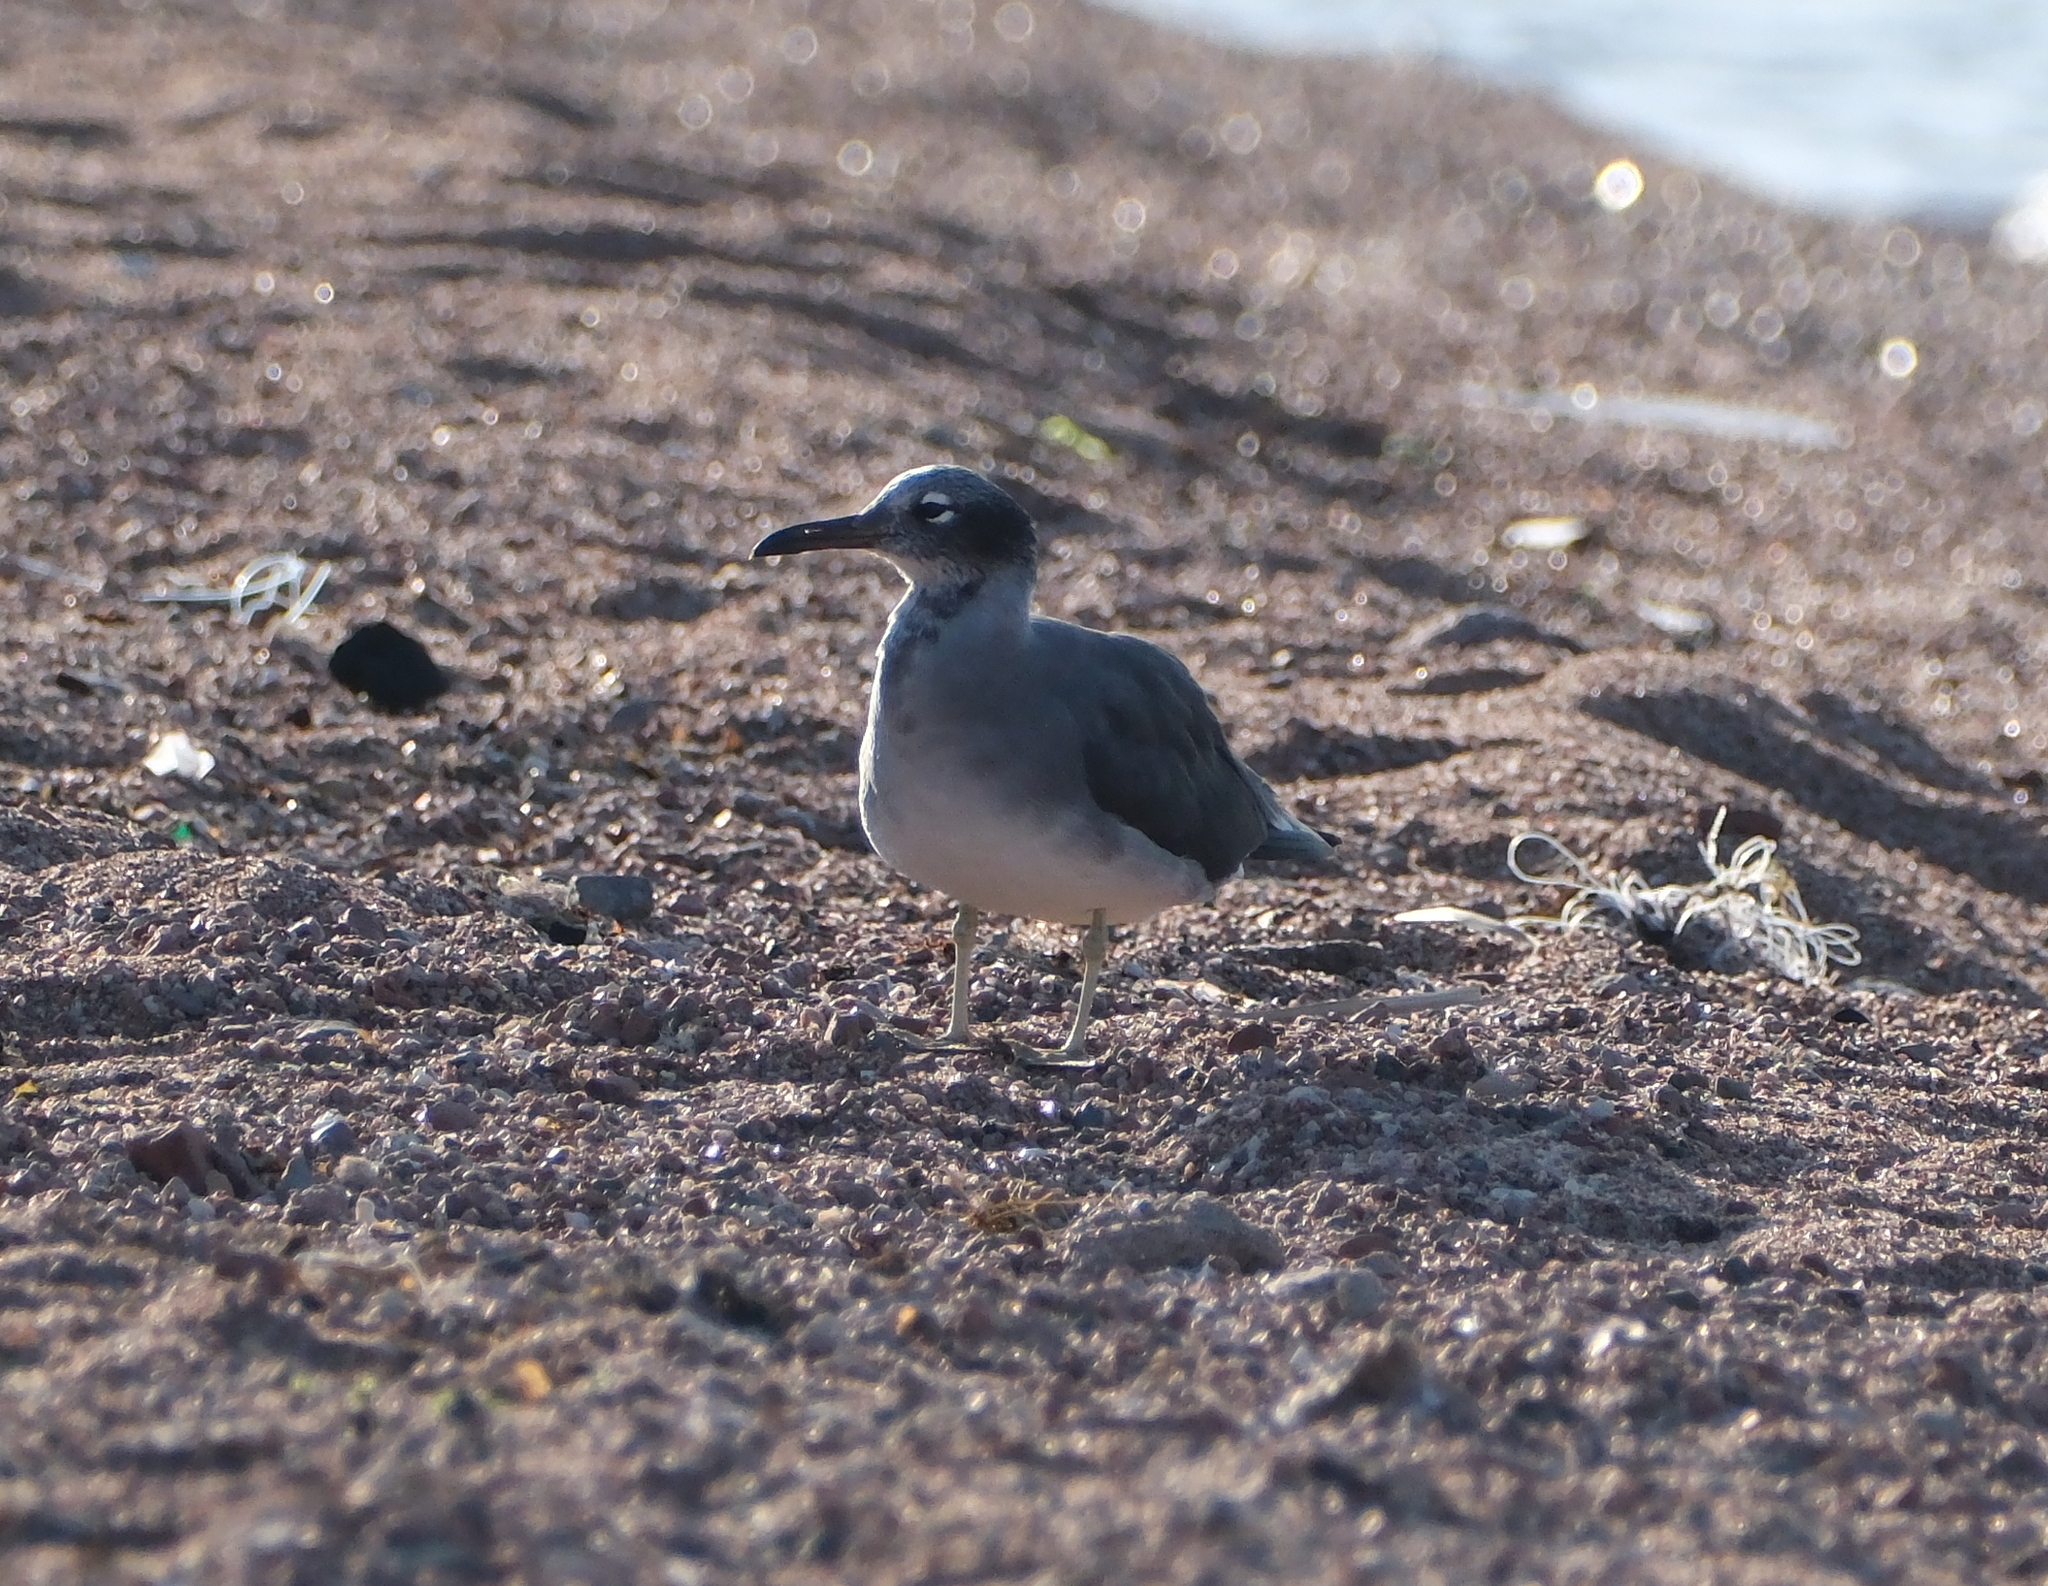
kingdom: Animalia
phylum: Chordata
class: Aves
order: Charadriiformes
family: Laridae
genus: Ichthyaetus
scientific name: Ichthyaetus leucophthalmus
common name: White-eyed gull
